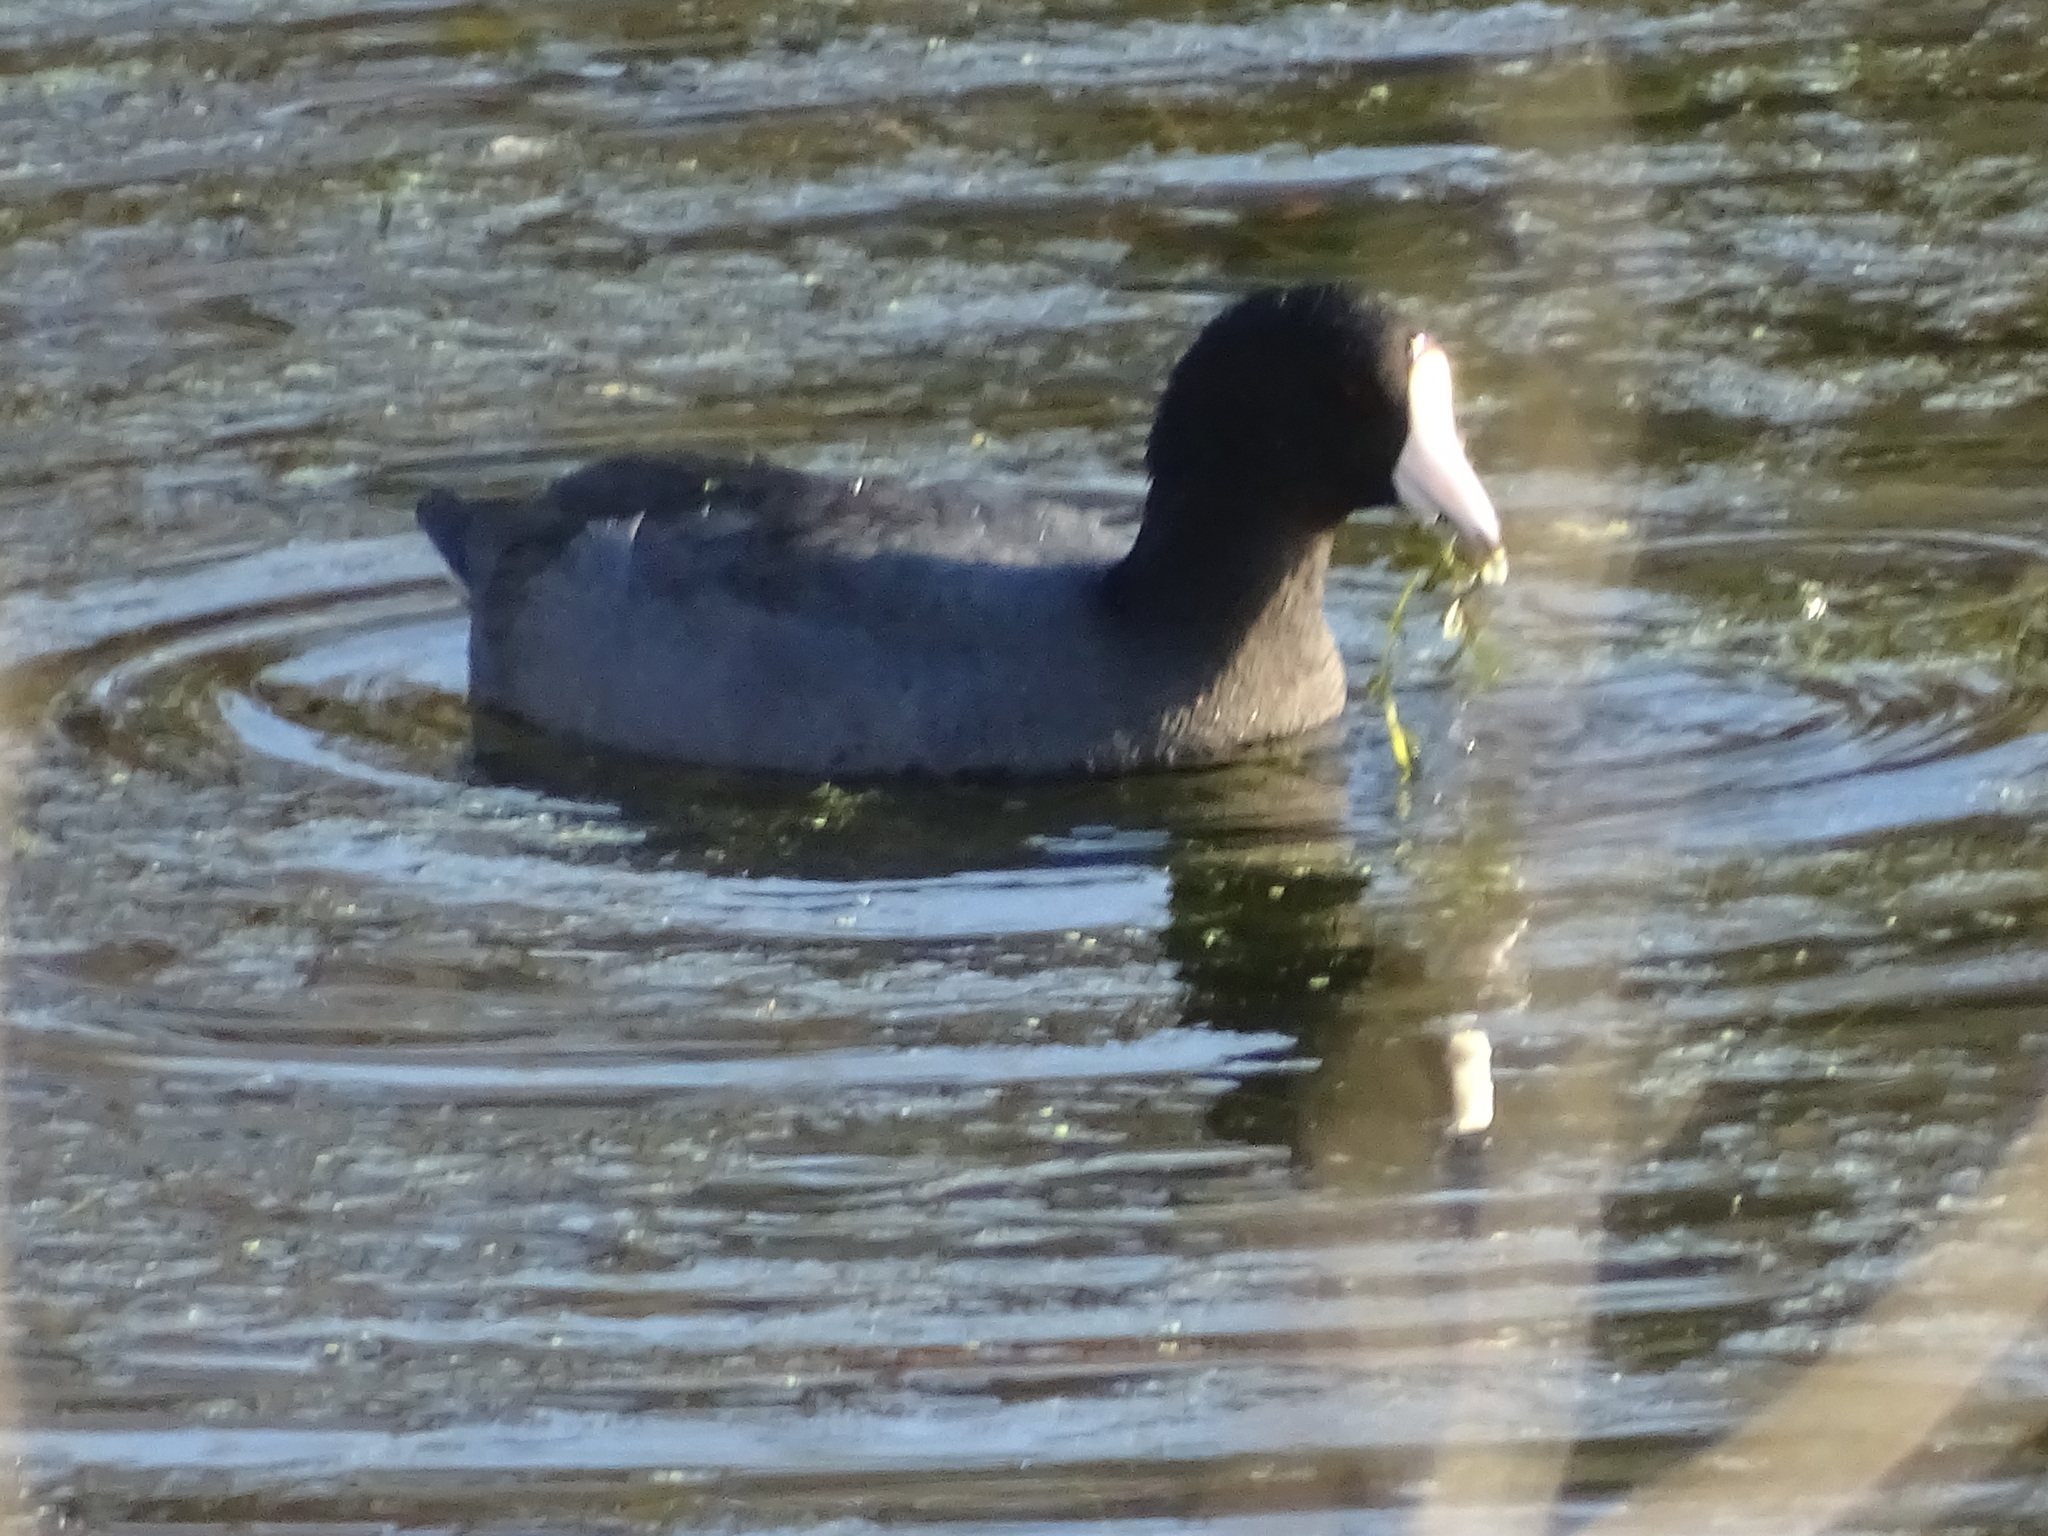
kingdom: Animalia
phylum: Chordata
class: Aves
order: Gruiformes
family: Rallidae
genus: Fulica
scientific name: Fulica americana
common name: American coot
